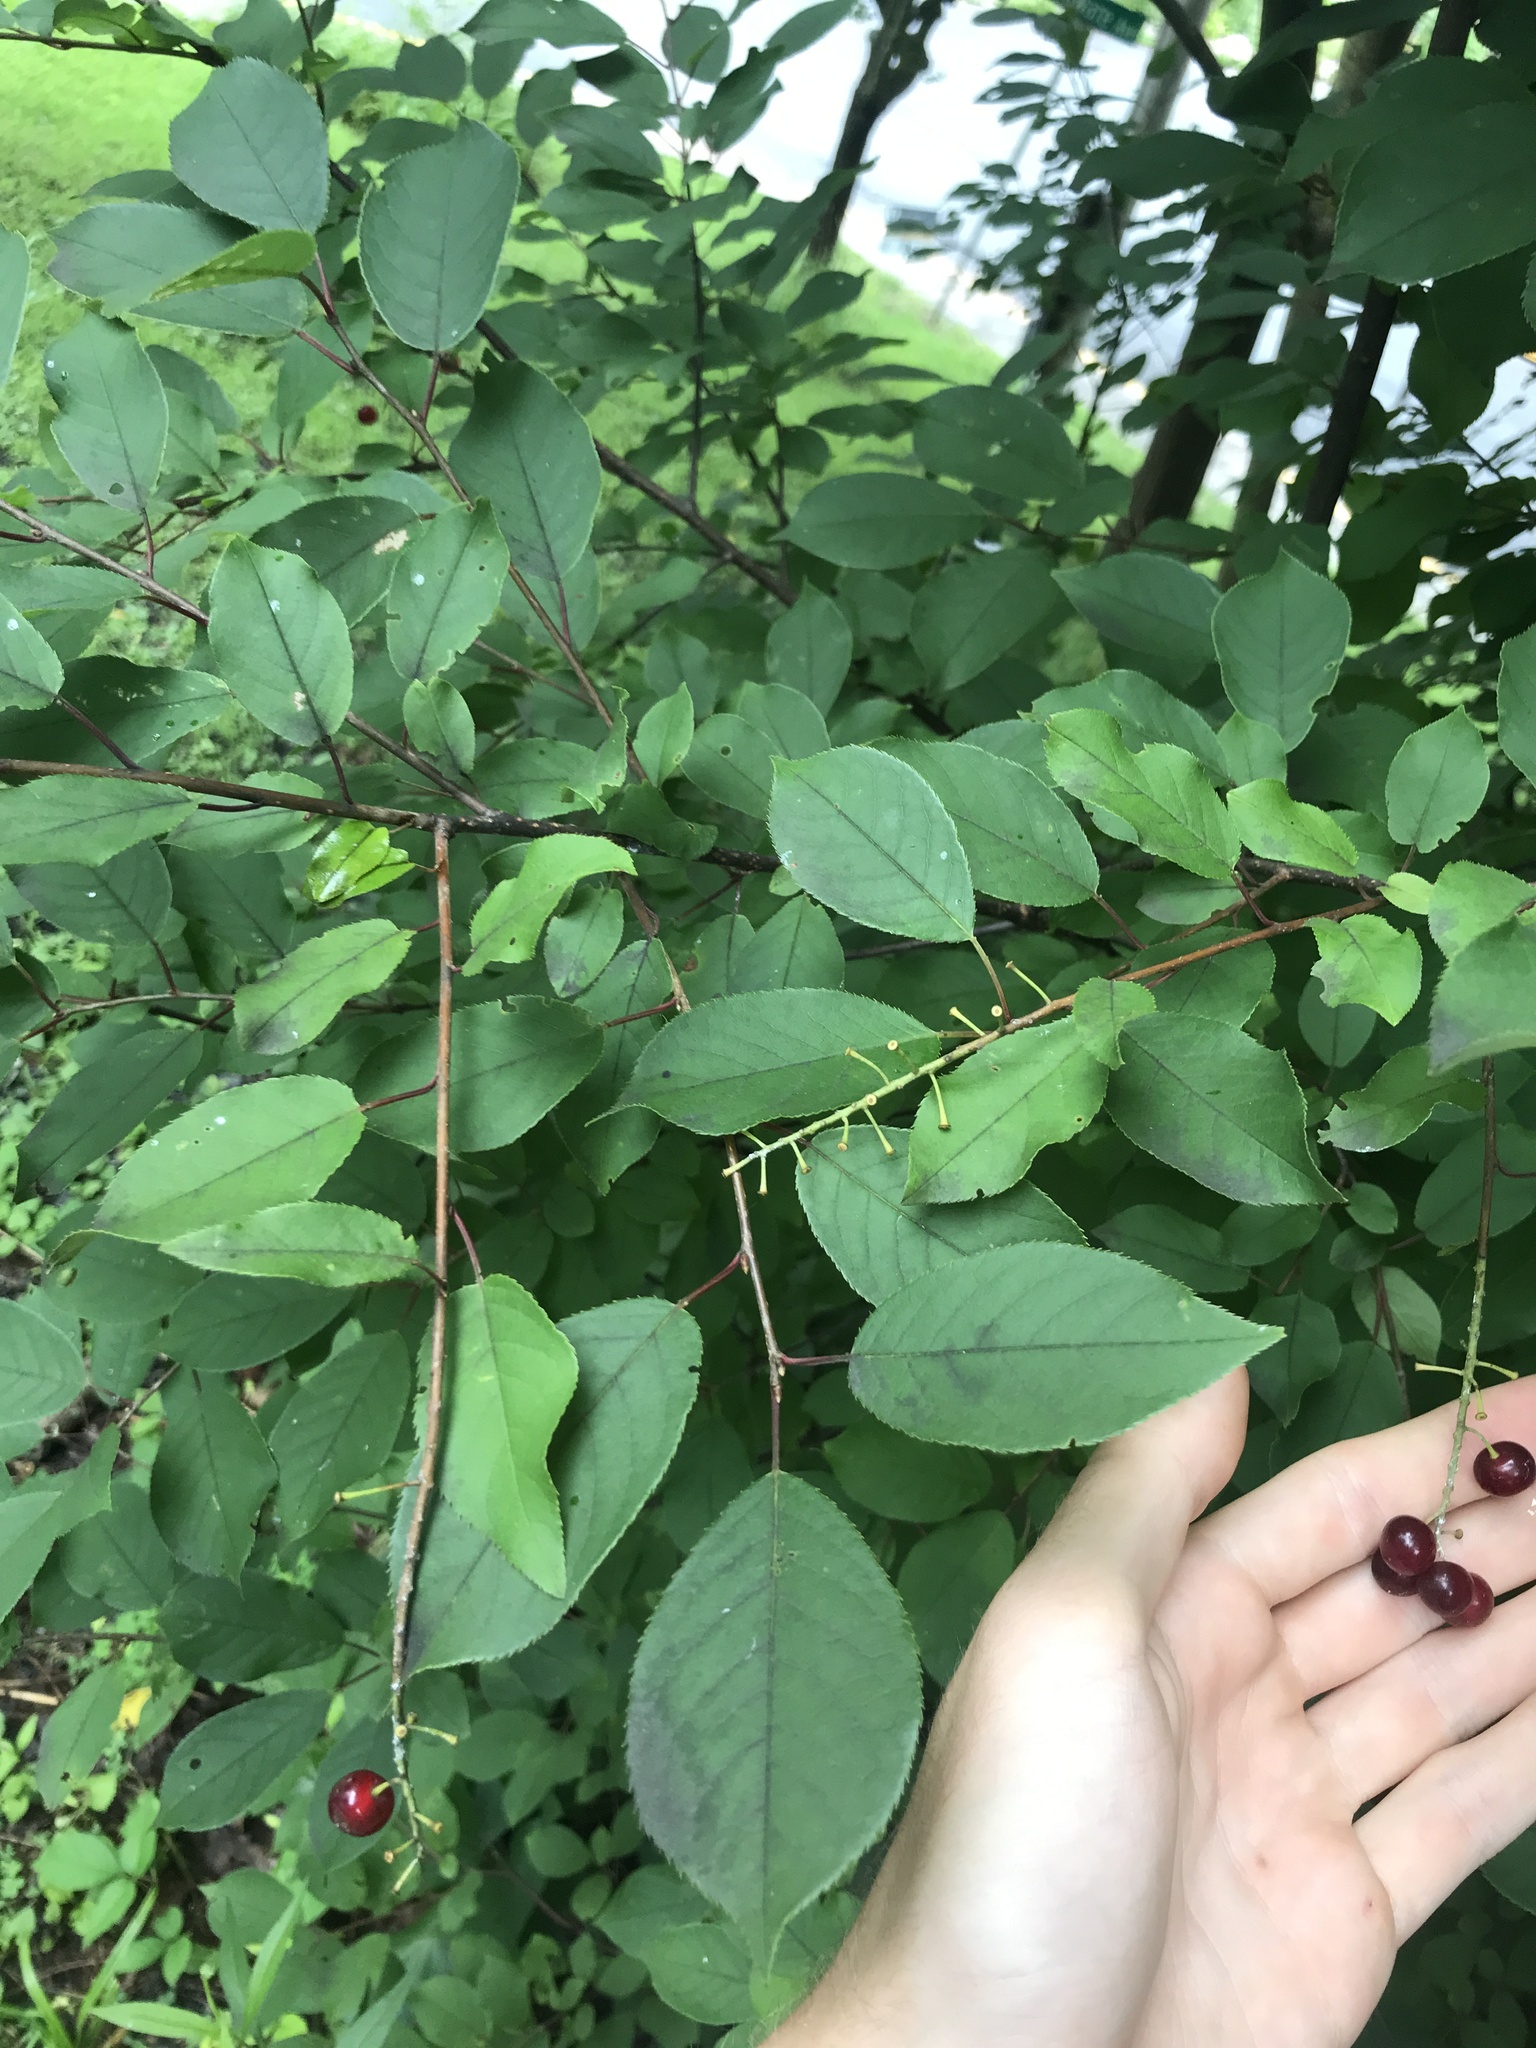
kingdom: Plantae
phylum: Tracheophyta
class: Magnoliopsida
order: Rosales
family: Rosaceae
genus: Prunus
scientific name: Prunus virginiana
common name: Chokecherry
